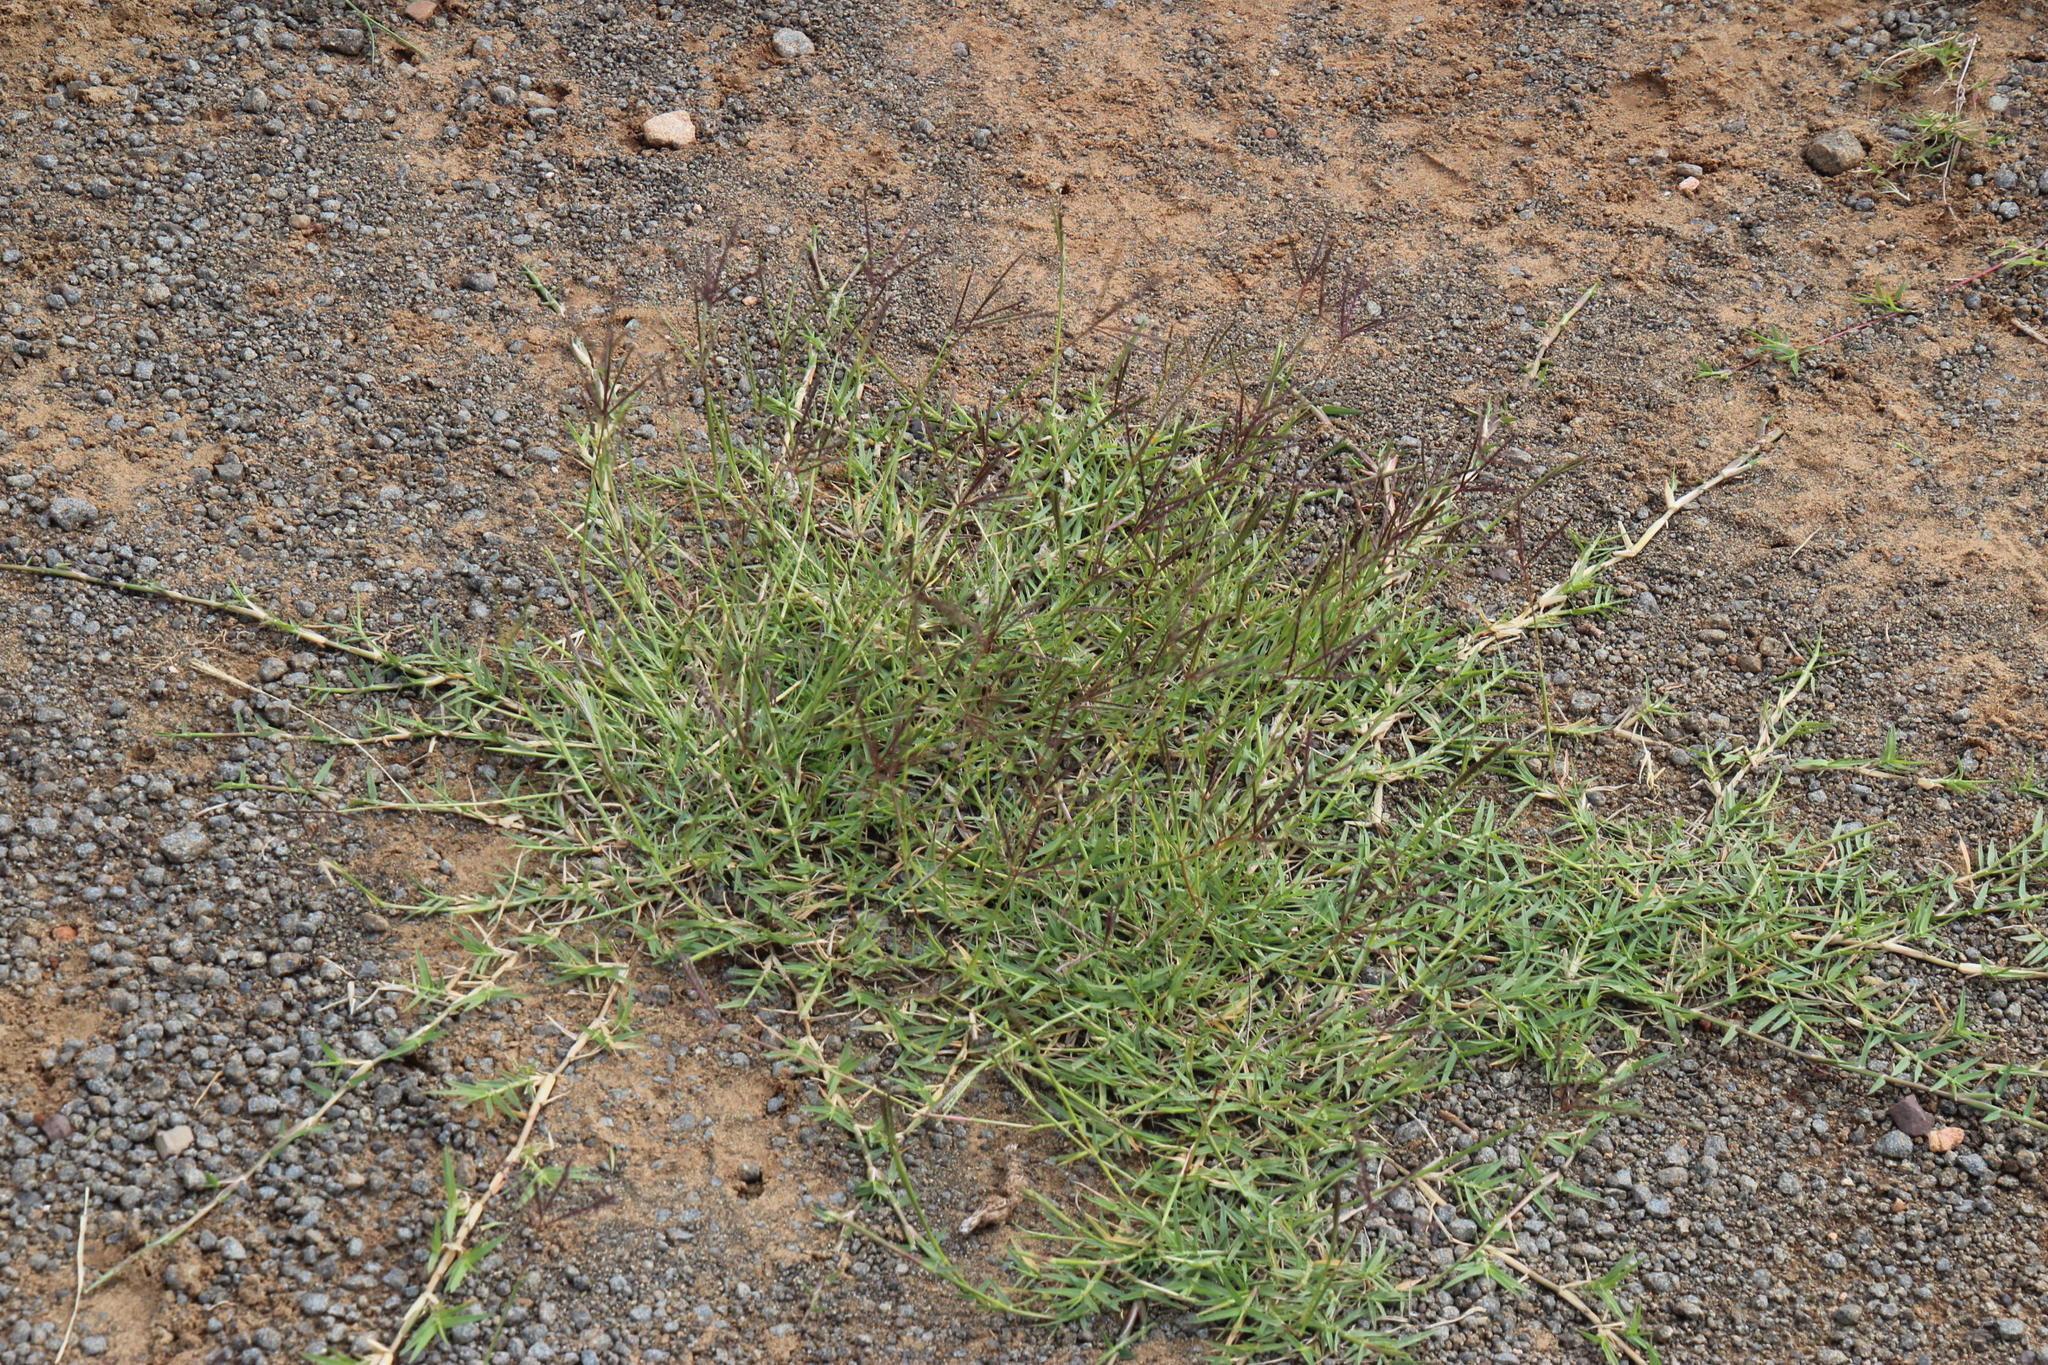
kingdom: Plantae
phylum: Tracheophyta
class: Liliopsida
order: Poales
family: Poaceae
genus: Cynodon
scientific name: Cynodon dactylon
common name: Bermuda grass
